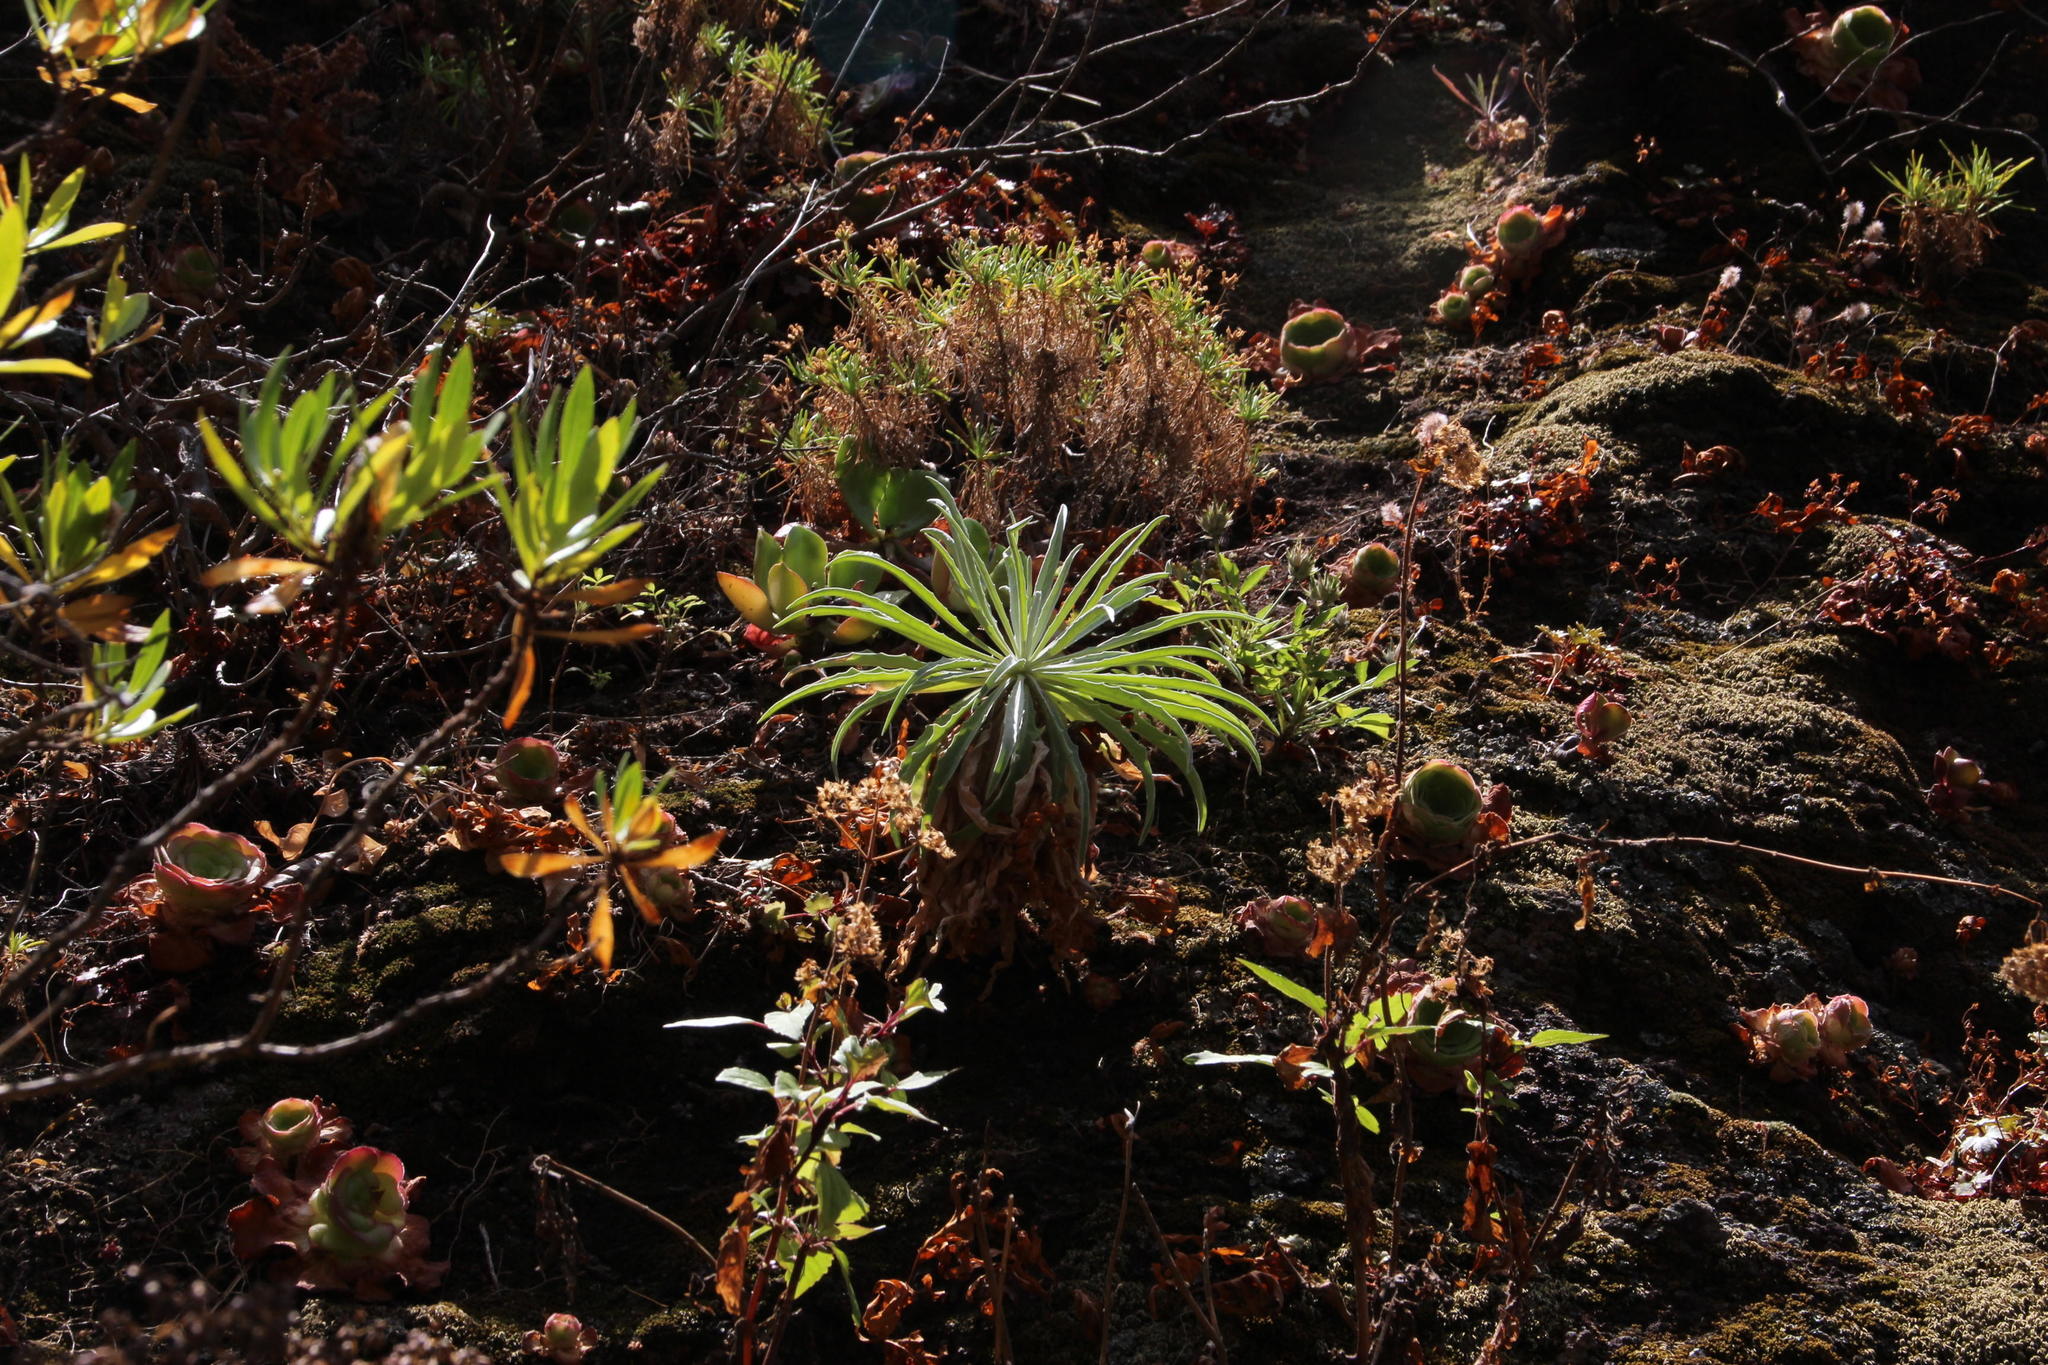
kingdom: Plantae
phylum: Tracheophyta
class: Magnoliopsida
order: Brassicales
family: Brassicaceae
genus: Matthiola
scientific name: Matthiola maderensis
